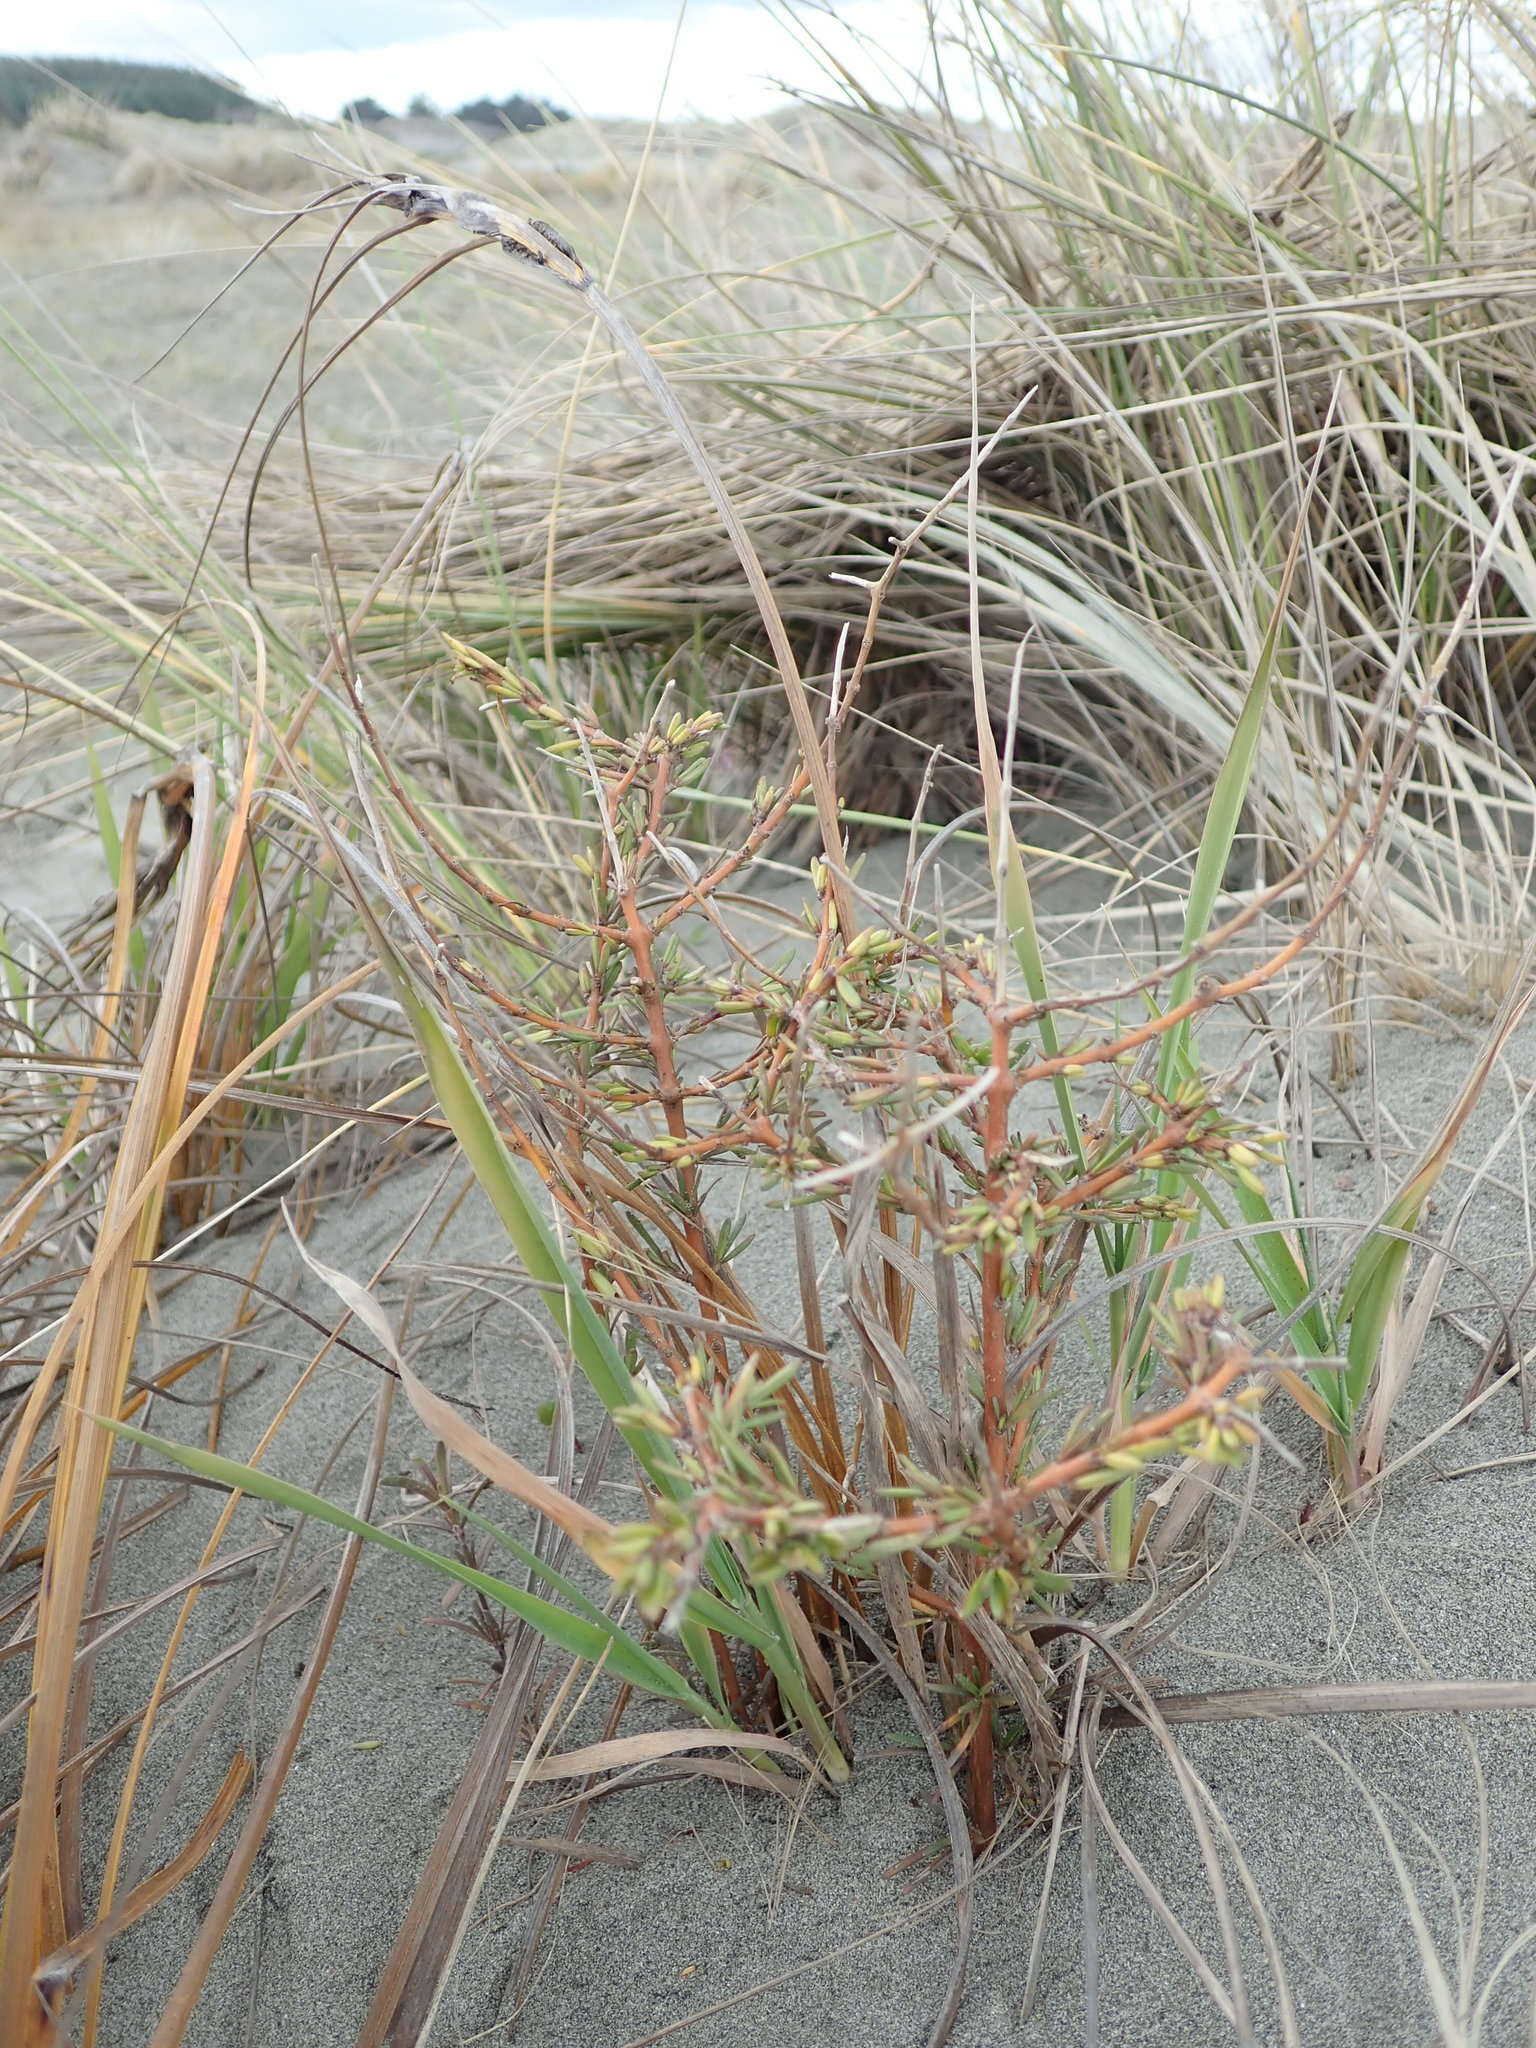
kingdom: Plantae
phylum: Tracheophyta
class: Magnoliopsida
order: Gentianales
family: Rubiaceae
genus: Coprosma
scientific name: Coprosma acerosa
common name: Sand coprosma
